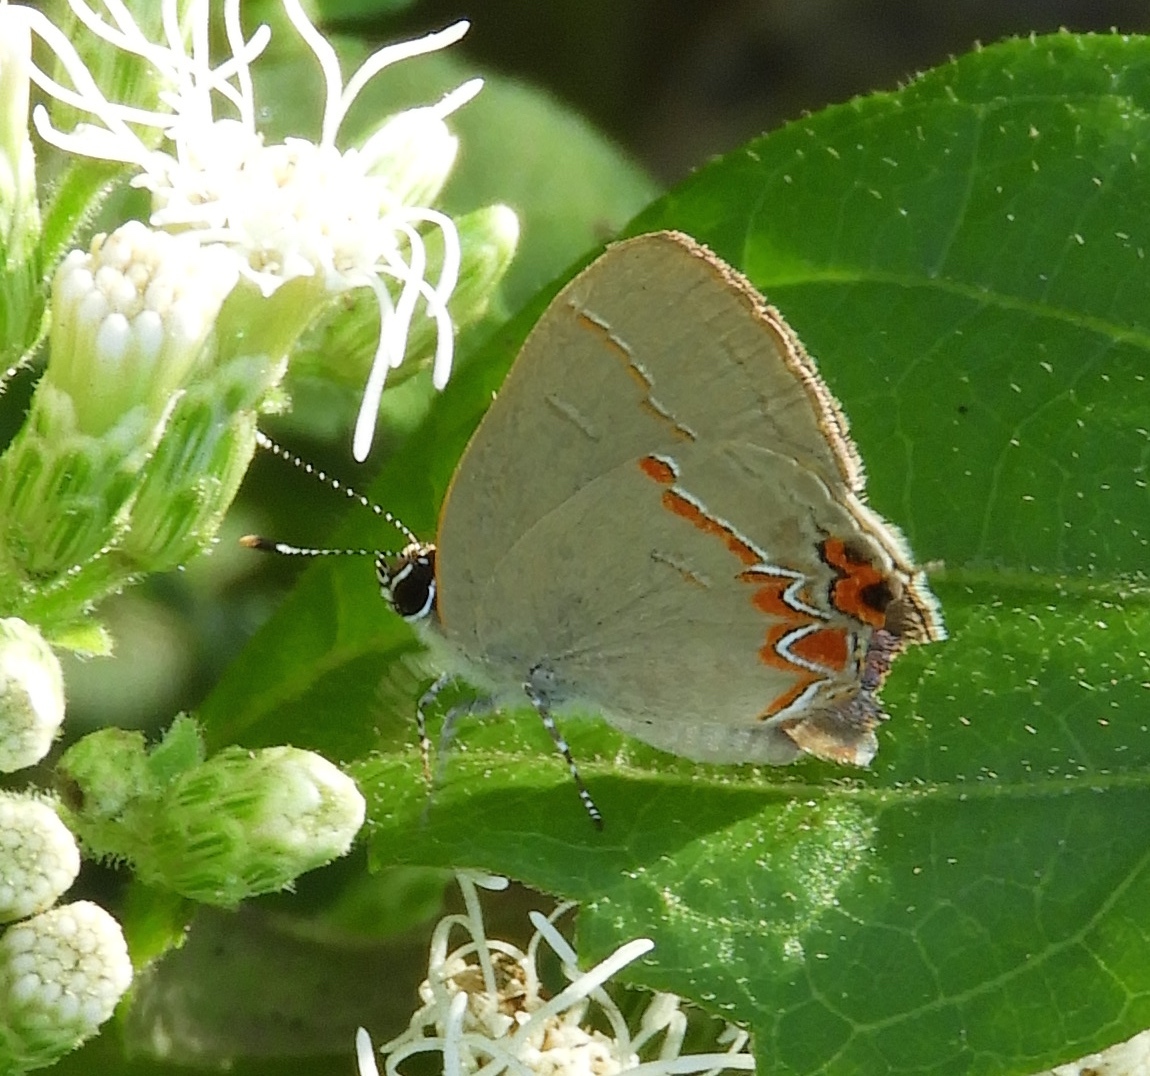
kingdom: Animalia
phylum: Arthropoda
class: Insecta
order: Lepidoptera
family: Lycaenidae
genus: Calycopis
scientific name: Calycopis
